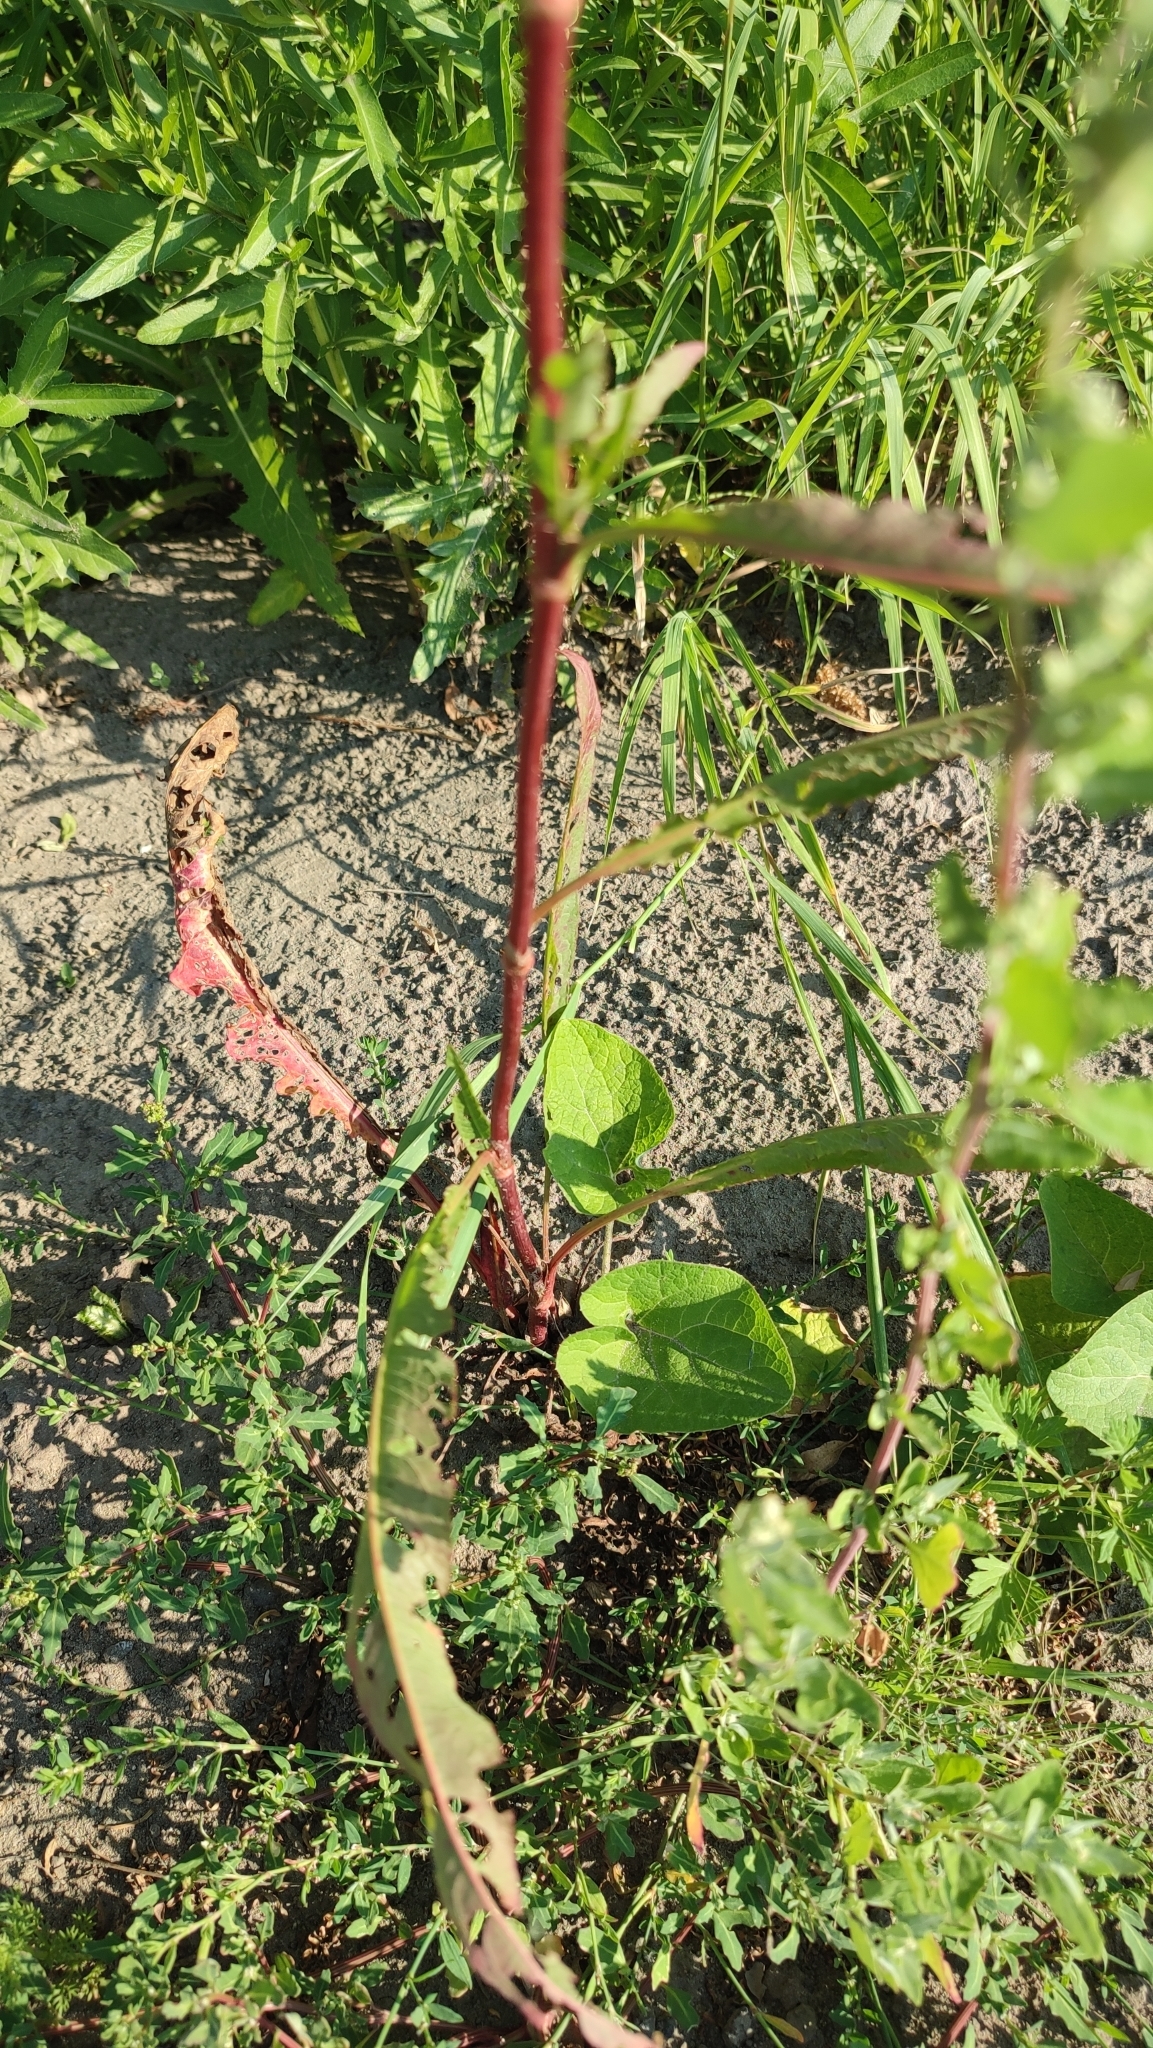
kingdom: Plantae
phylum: Tracheophyta
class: Magnoliopsida
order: Caryophyllales
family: Polygonaceae
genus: Rumex
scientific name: Rumex pseudonatronatus
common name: Field dock
